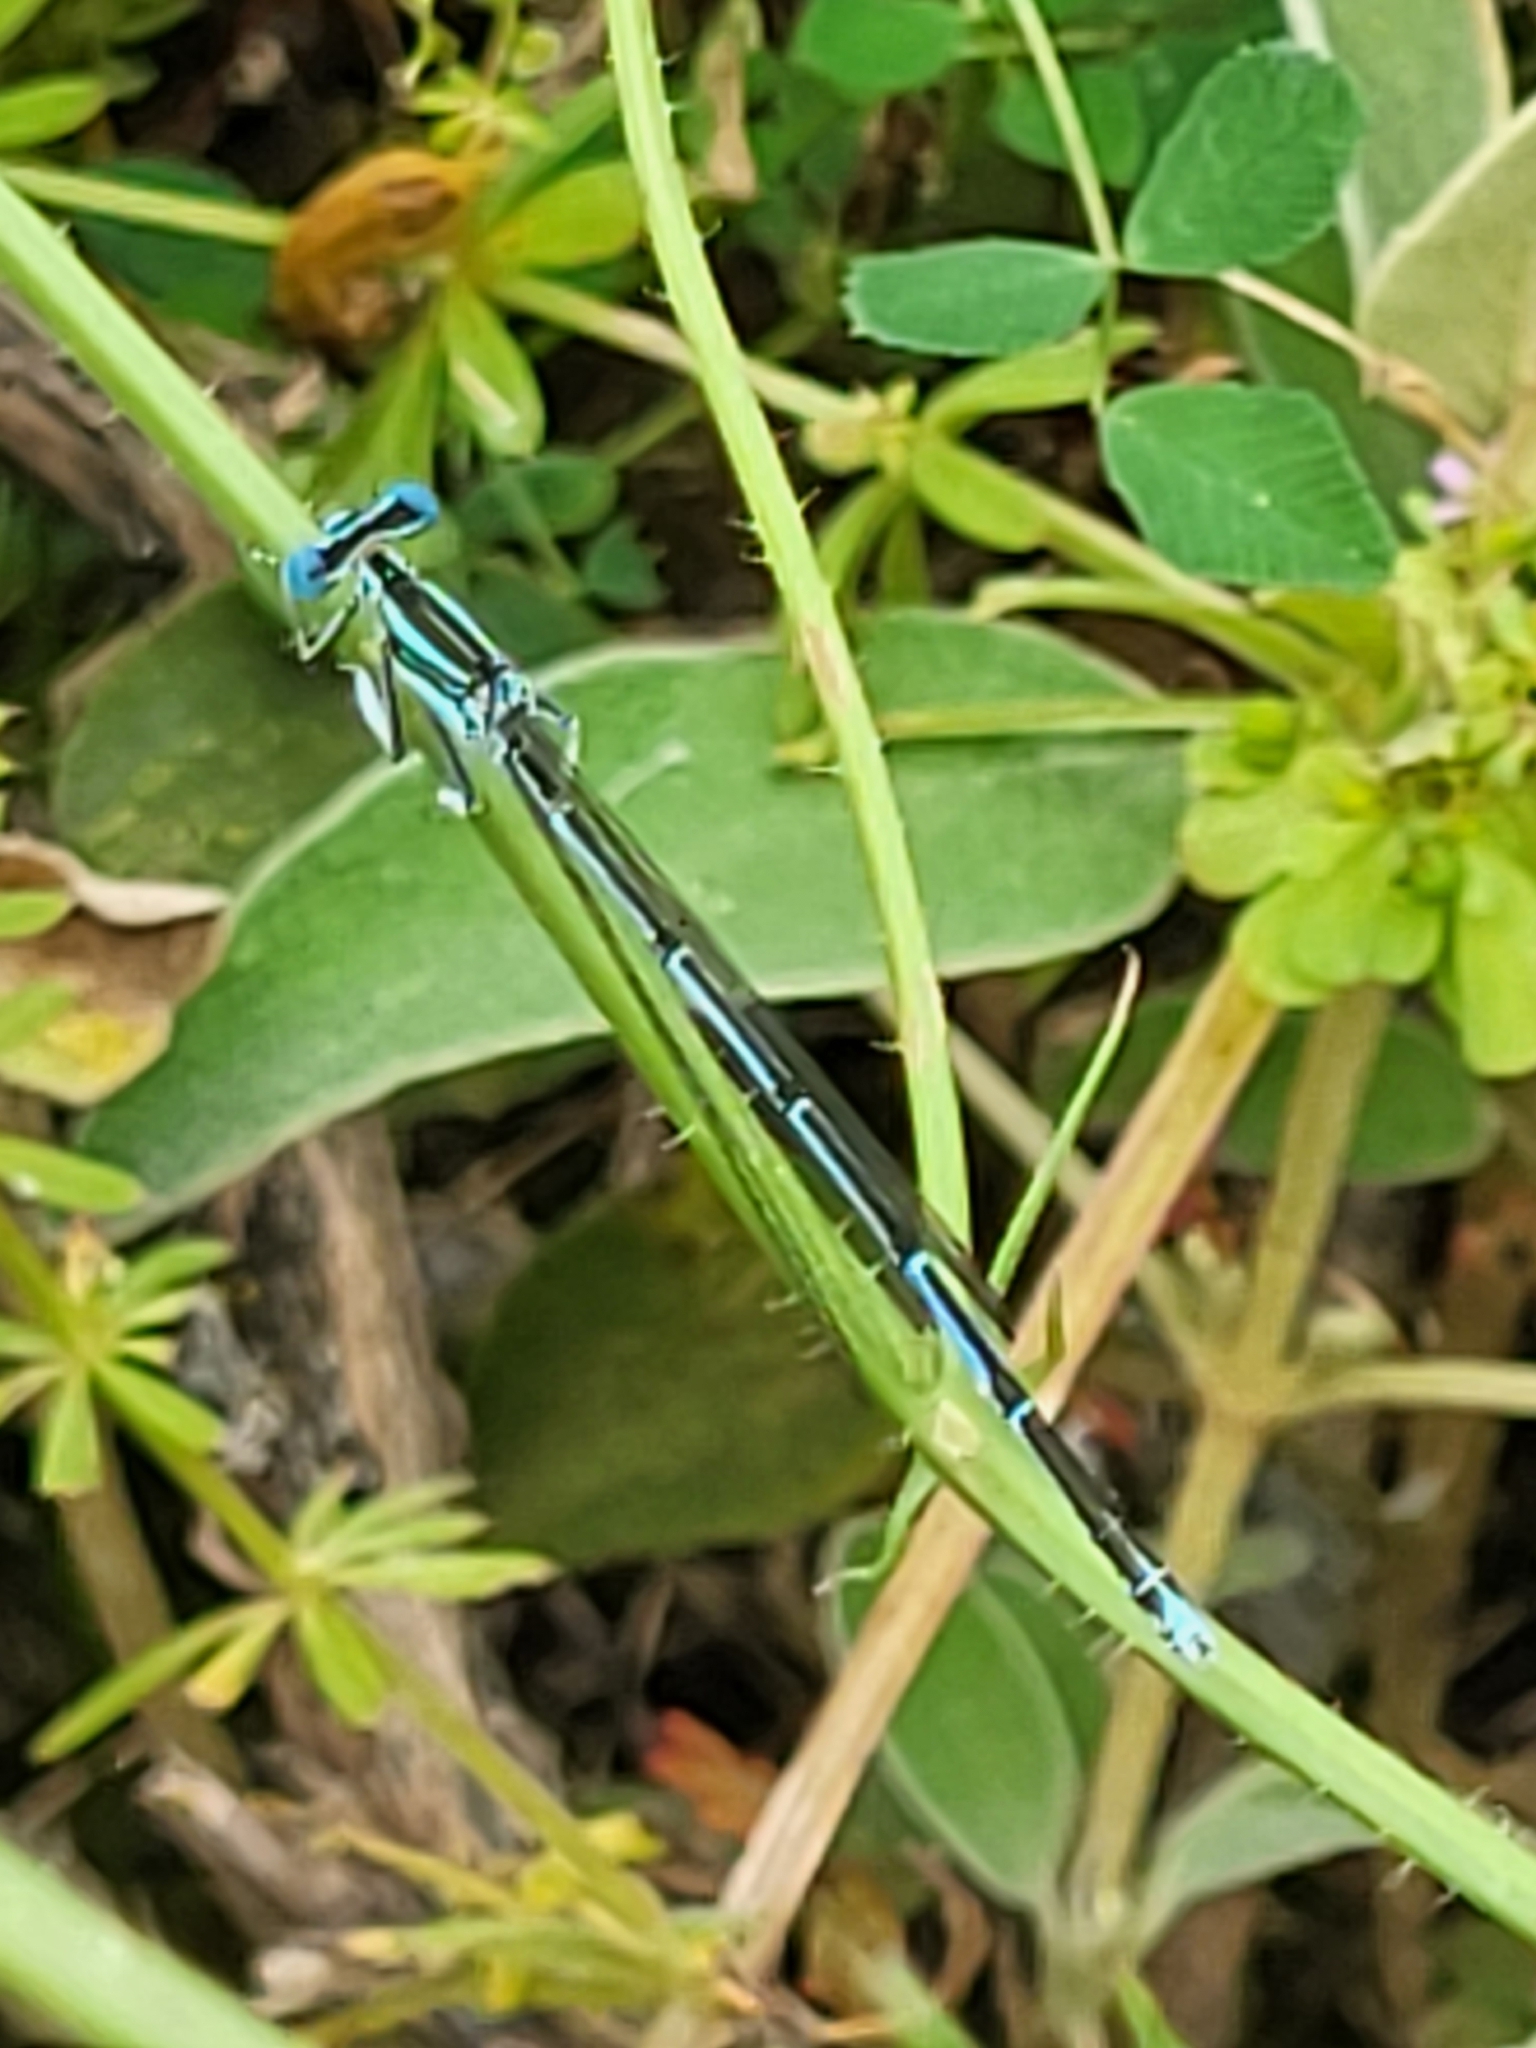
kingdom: Animalia
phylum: Arthropoda
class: Insecta
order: Odonata
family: Platycnemididae
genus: Platycnemis
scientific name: Platycnemis pennipes
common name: White-legged damselfly
